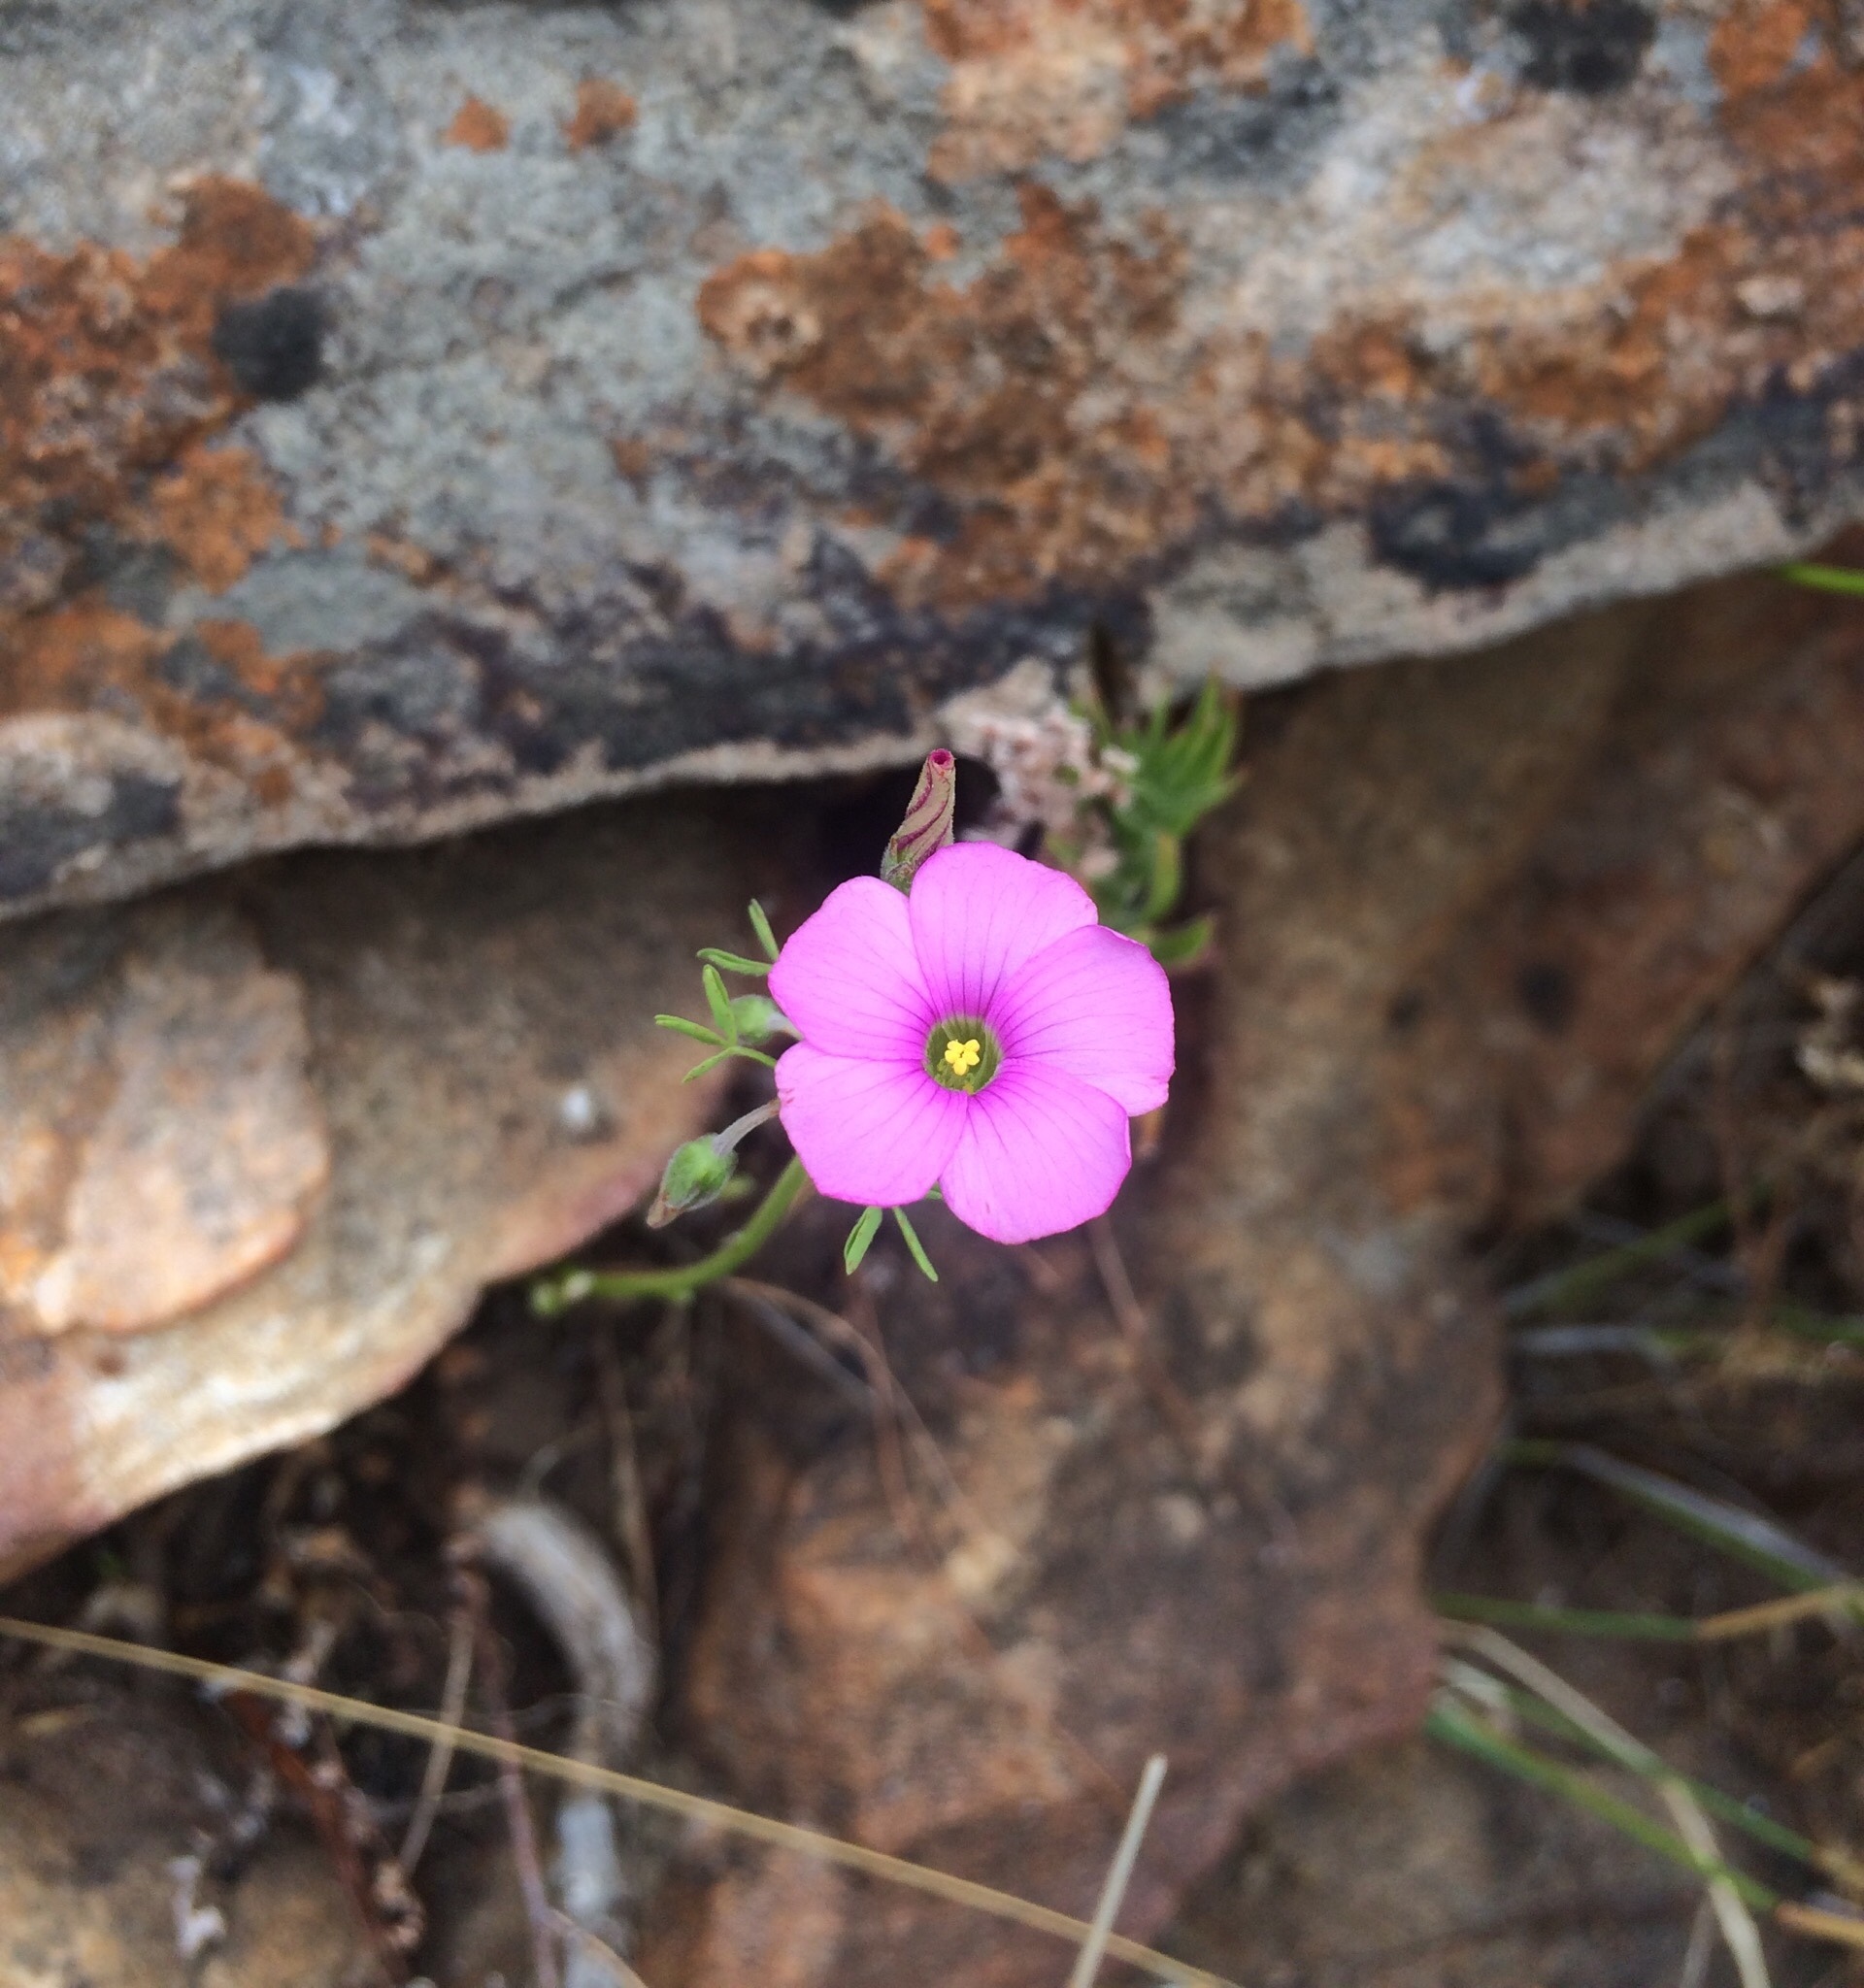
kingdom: Plantae
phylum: Tracheophyta
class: Magnoliopsida
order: Oxalidales
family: Oxalidaceae
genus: Oxalis
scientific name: Oxalis bifida
